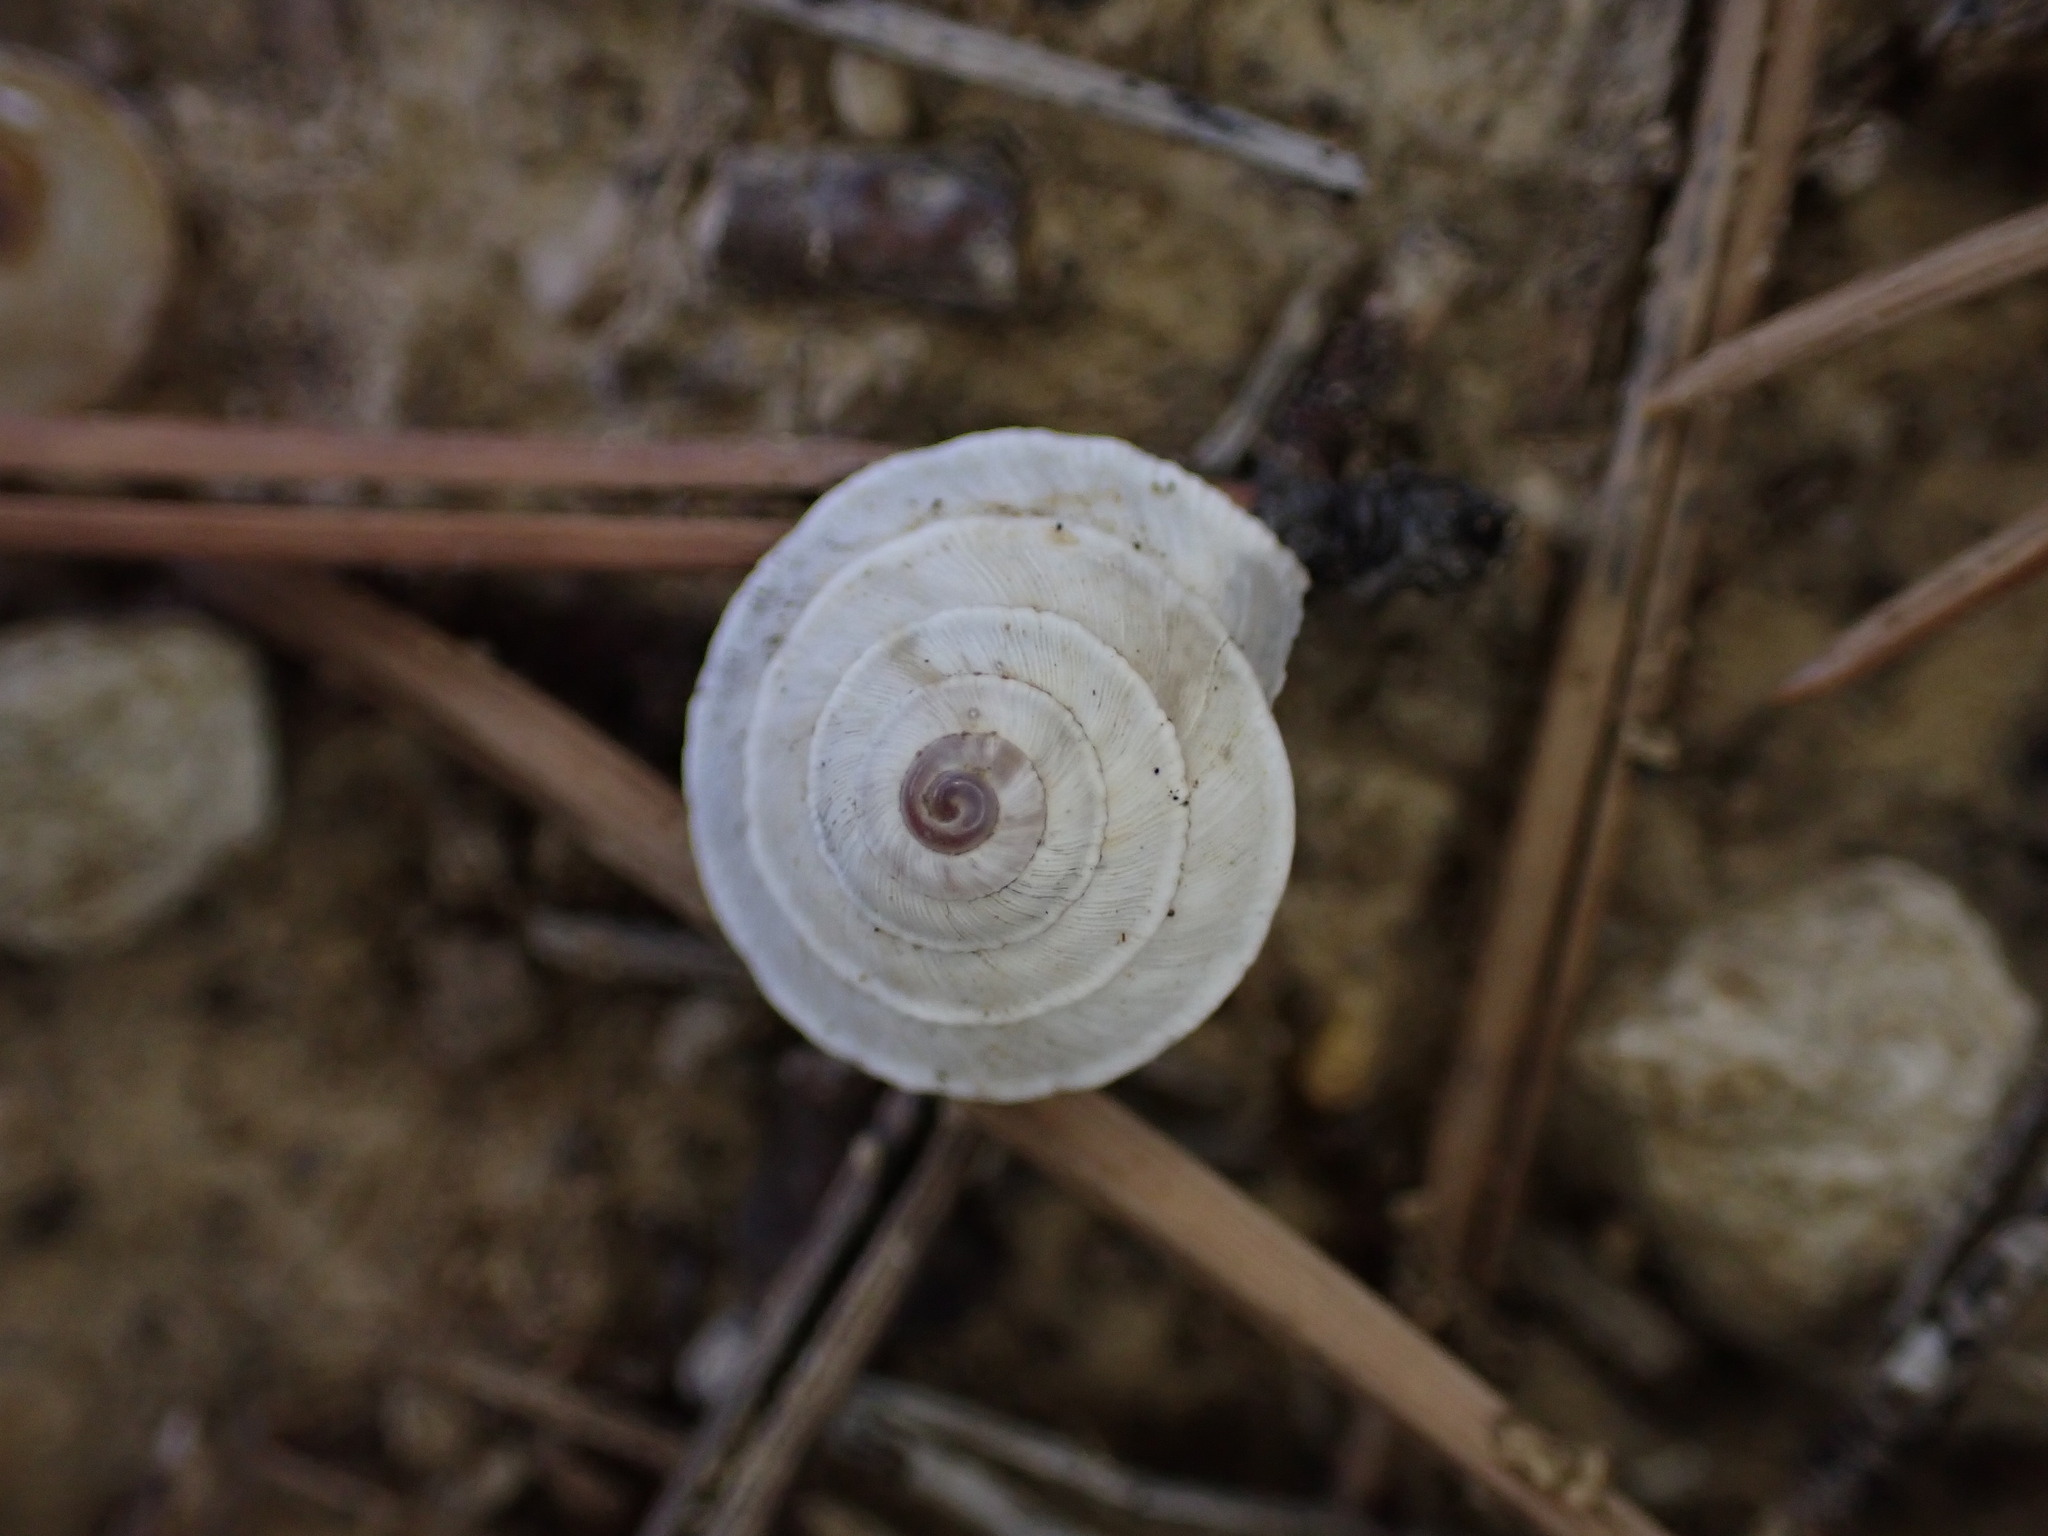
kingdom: Animalia
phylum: Mollusca
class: Gastropoda
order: Stylommatophora
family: Geomitridae
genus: Trochoidea
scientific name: Trochoidea elegans
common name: Elegant helicellid
